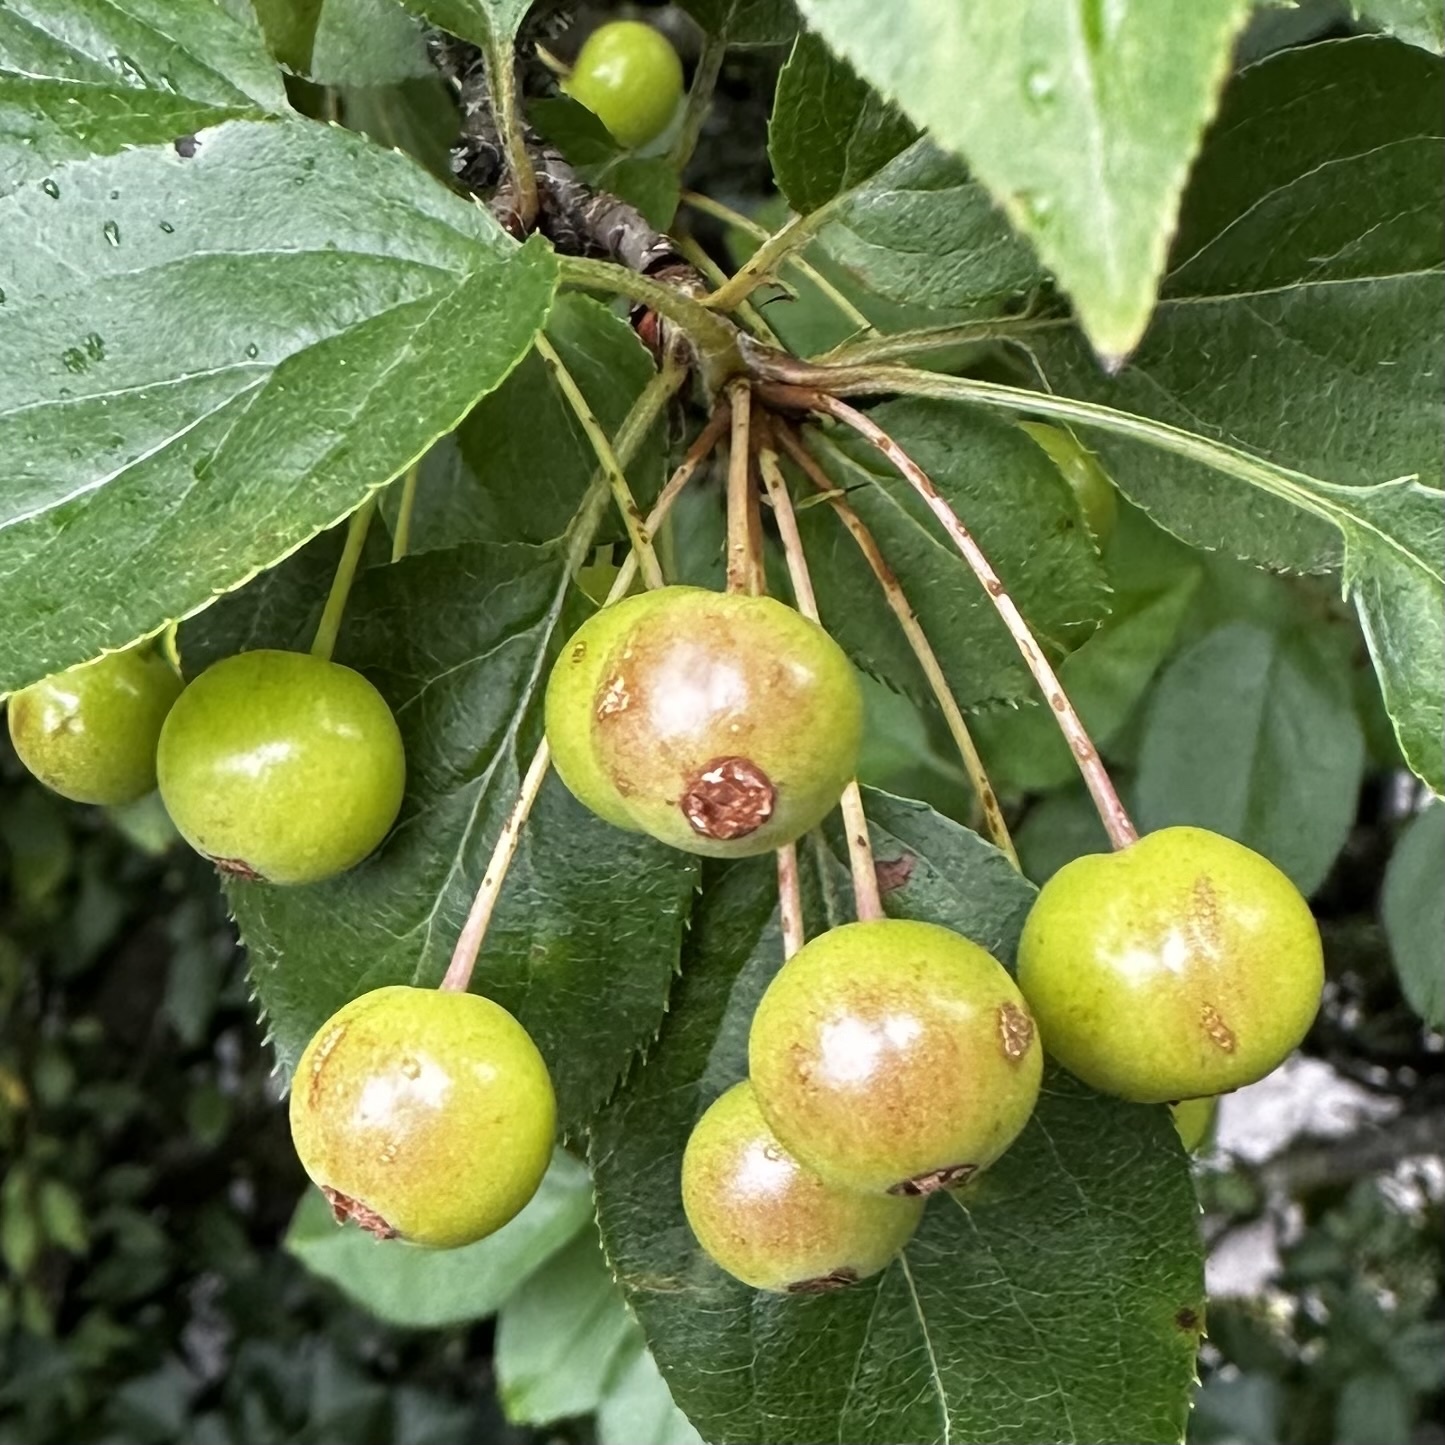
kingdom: Plantae
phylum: Tracheophyta
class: Magnoliopsida
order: Rosales
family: Rosaceae
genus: Malus
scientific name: Malus baccata
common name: Siberian crab
